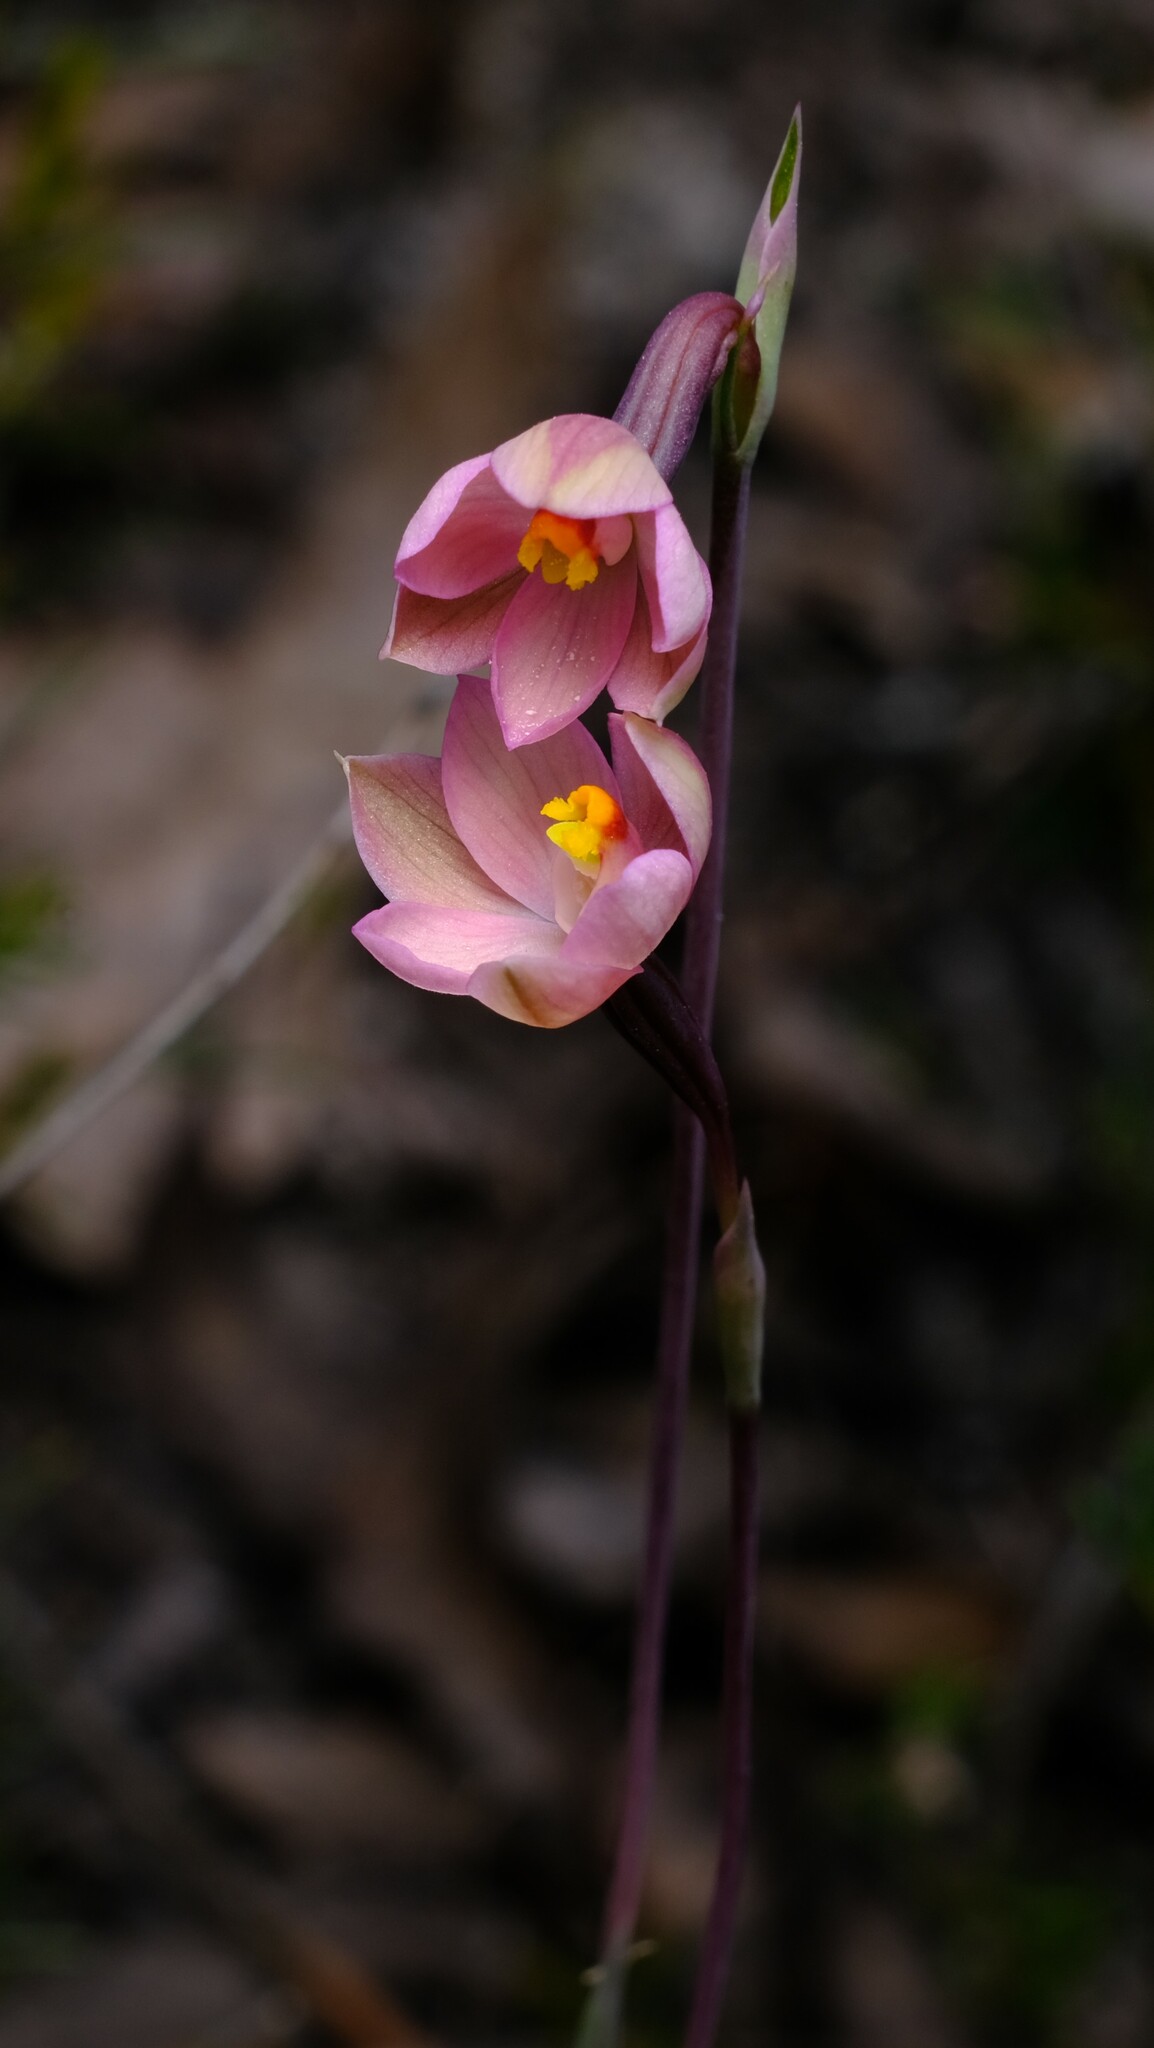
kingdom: Plantae
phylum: Tracheophyta
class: Liliopsida
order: Asparagales
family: Orchidaceae
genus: Thelymitra
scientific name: Thelymitra rubra
